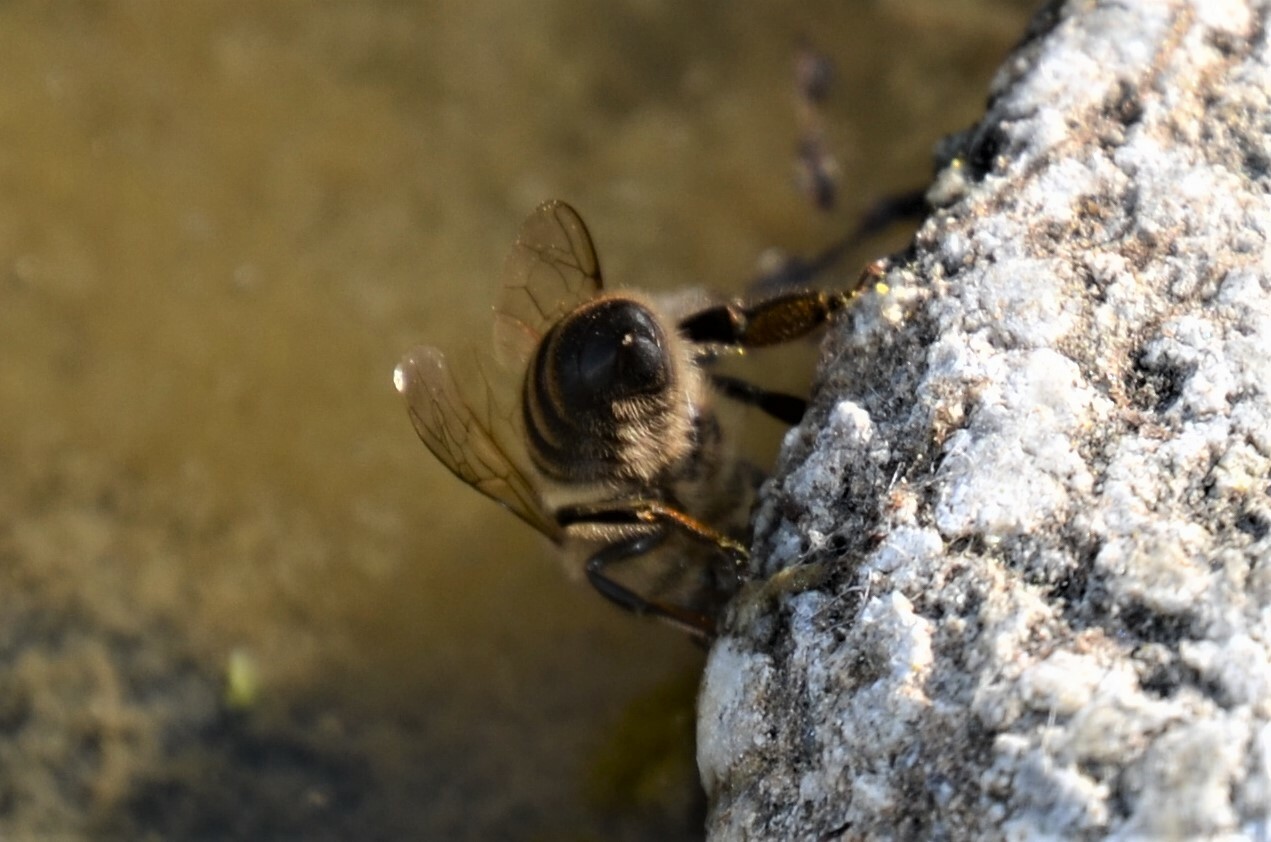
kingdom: Animalia
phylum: Arthropoda
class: Insecta
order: Hymenoptera
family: Apidae
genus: Apis
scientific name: Apis mellifera
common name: Honey bee
